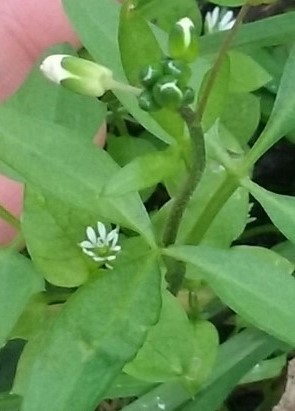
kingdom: Plantae
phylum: Tracheophyta
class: Magnoliopsida
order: Caryophyllales
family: Caryophyllaceae
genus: Stellaria
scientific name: Stellaria media
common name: Common chickweed
